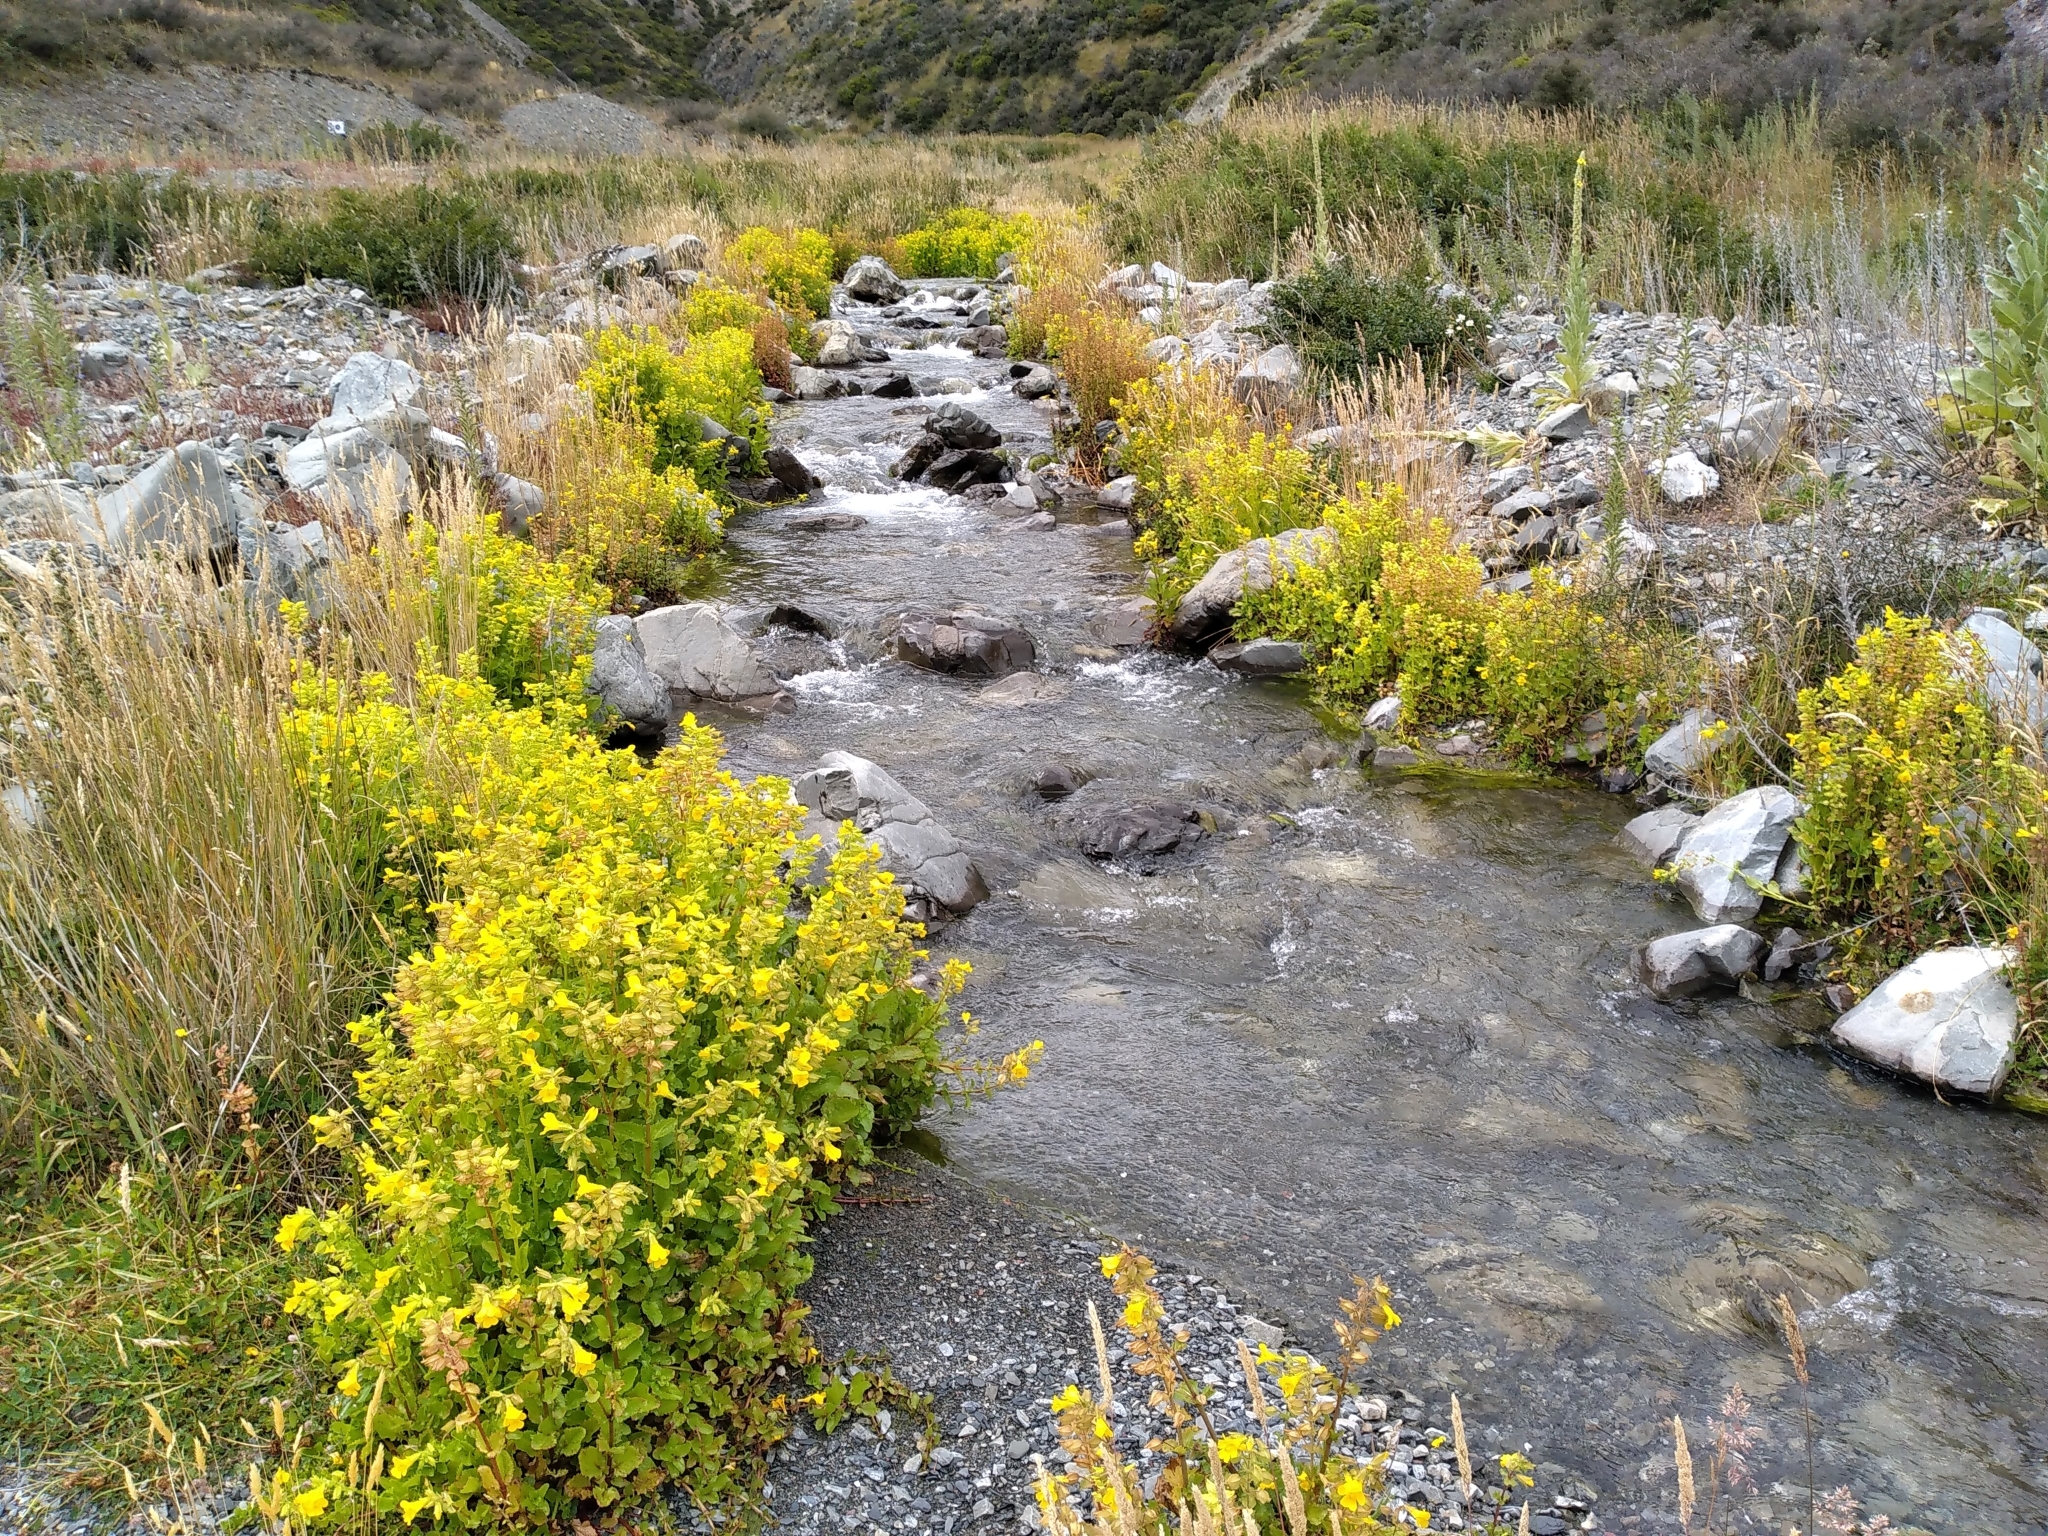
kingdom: Plantae
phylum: Tracheophyta
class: Magnoliopsida
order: Lamiales
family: Phrymaceae
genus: Erythranthe
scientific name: Erythranthe guttata
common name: Monkeyflower
